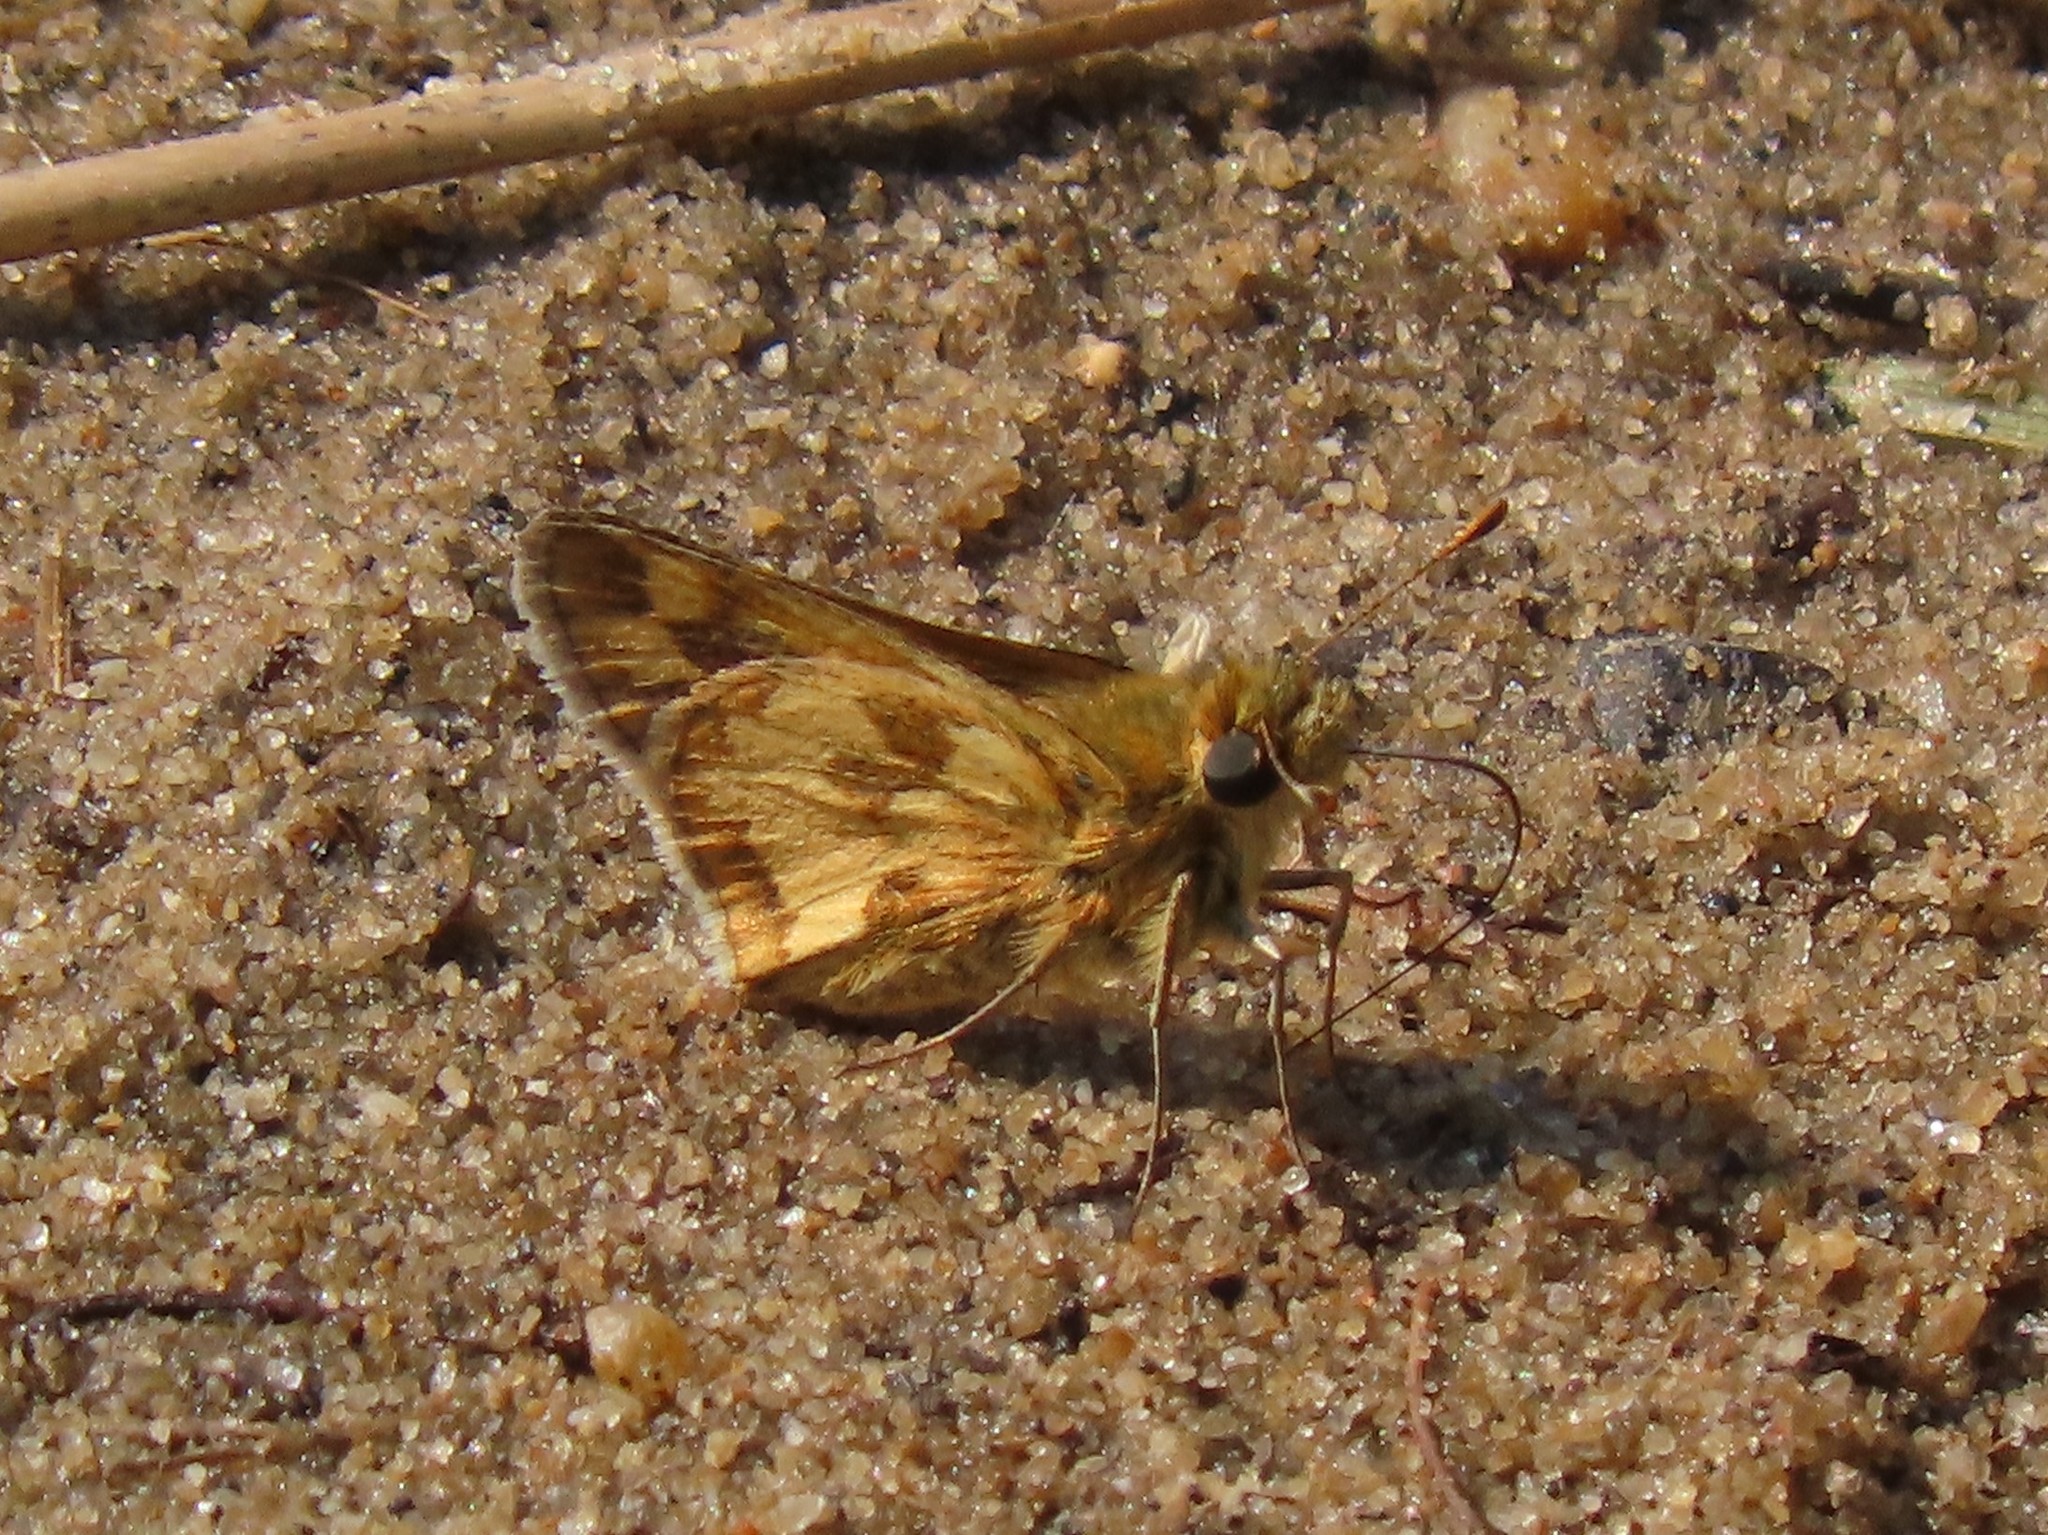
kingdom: Animalia
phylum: Arthropoda
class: Insecta
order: Lepidoptera
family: Hesperiidae
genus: Polites
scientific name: Polites coras
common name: Peck's skipper
